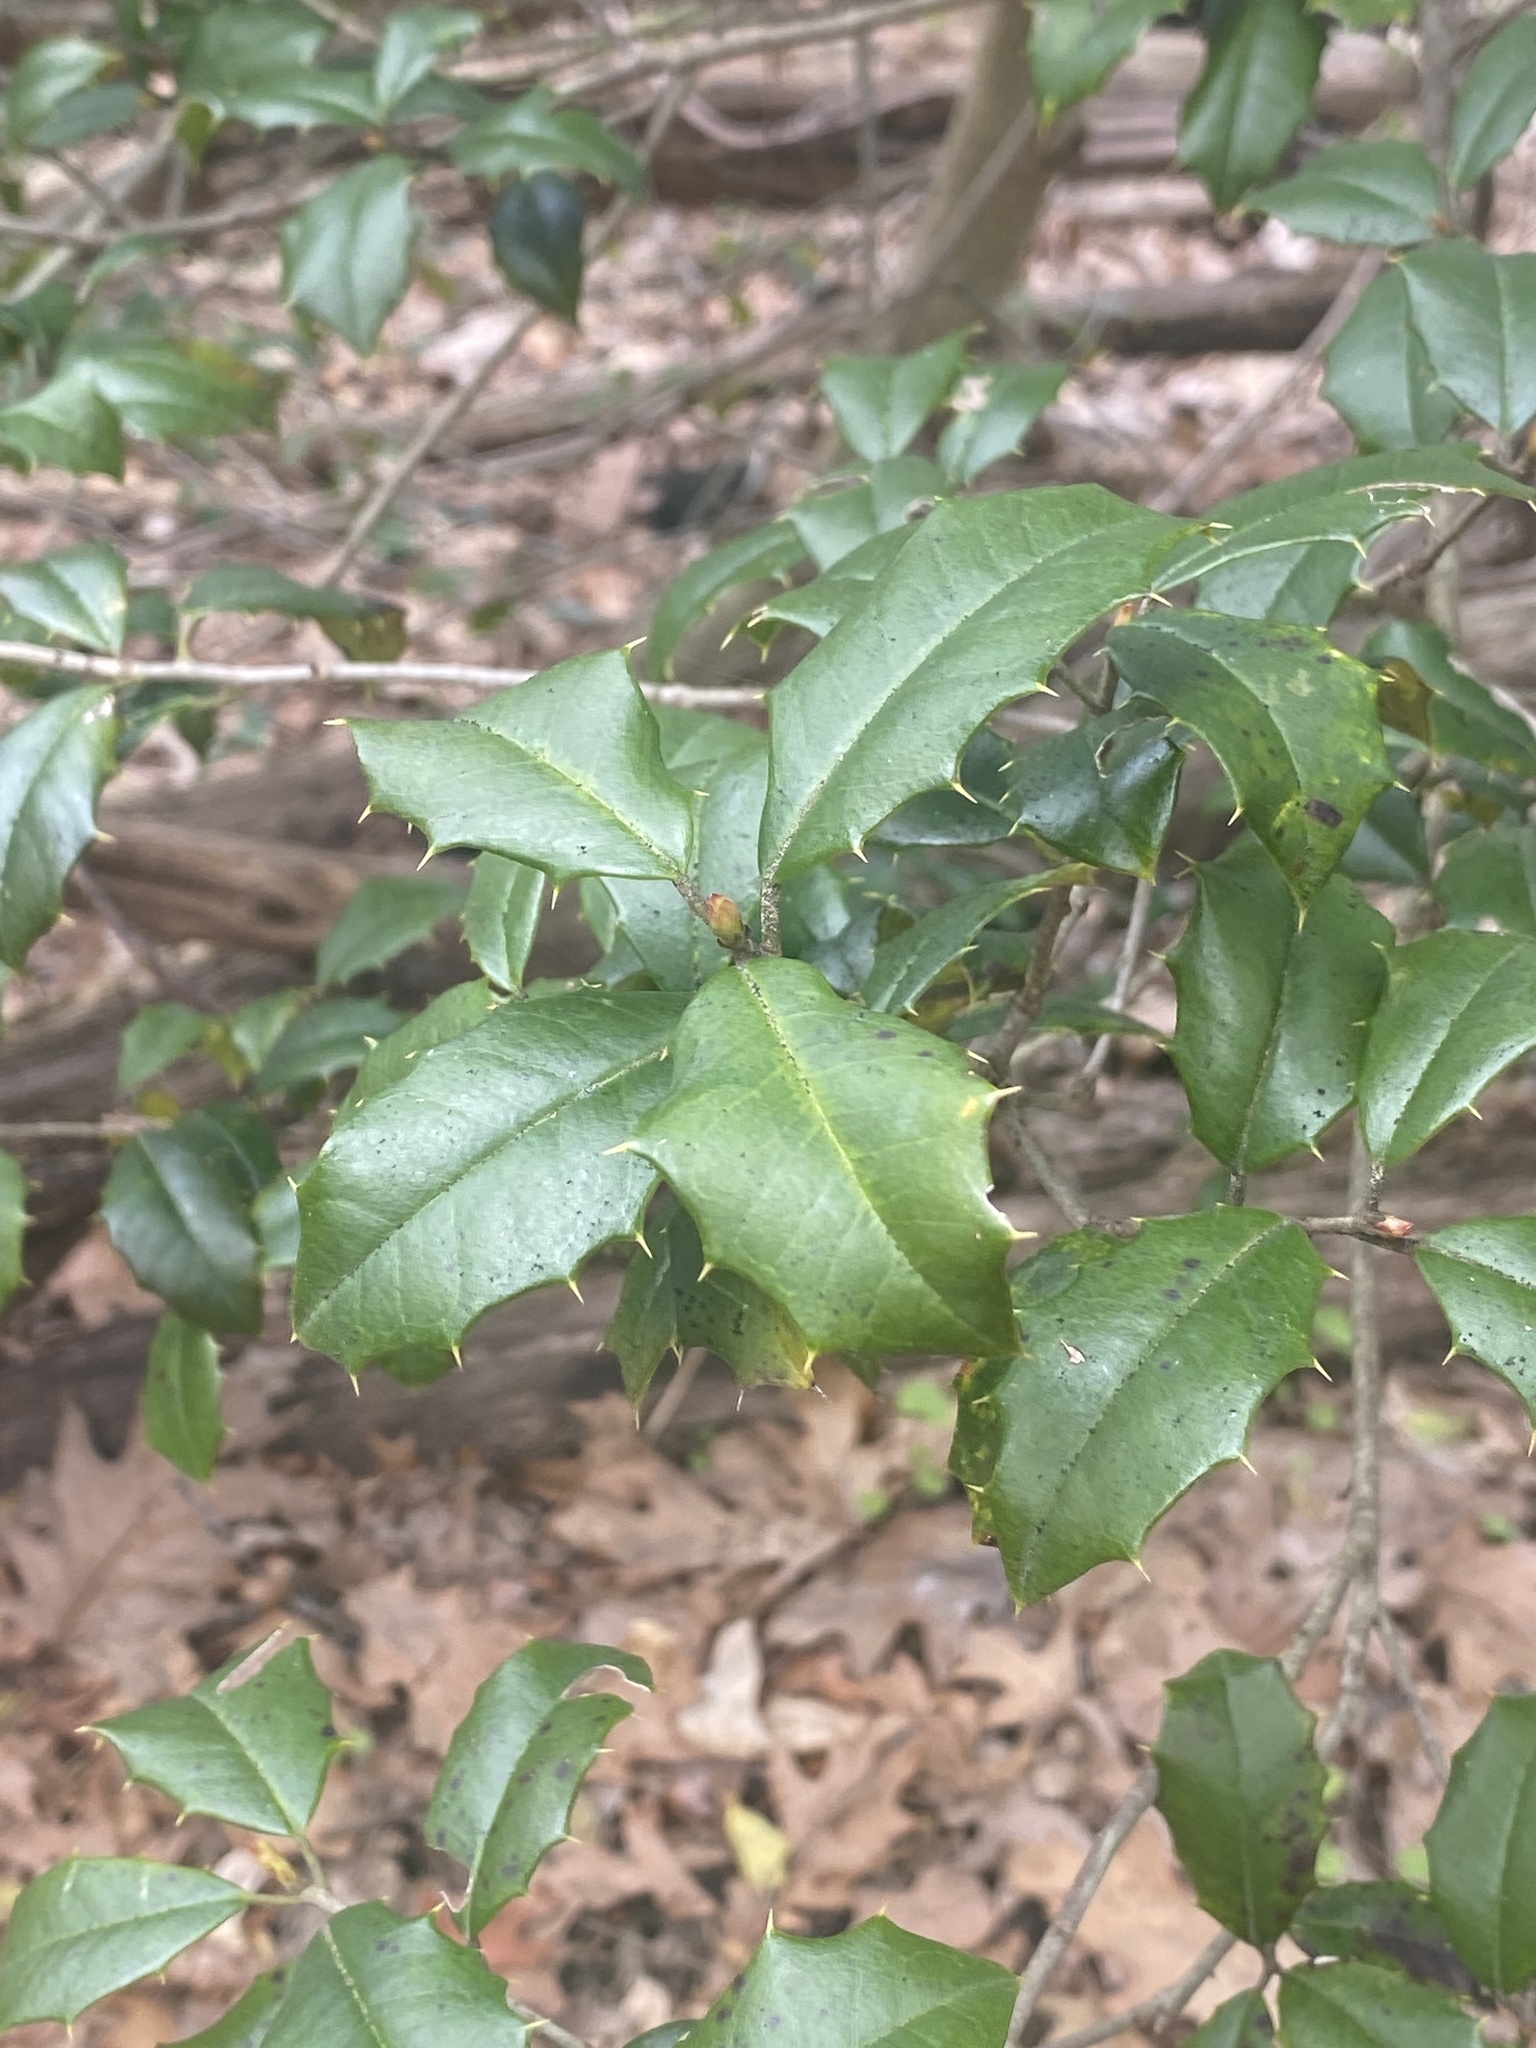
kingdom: Plantae
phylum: Tracheophyta
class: Magnoliopsida
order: Aquifoliales
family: Aquifoliaceae
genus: Ilex
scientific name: Ilex opaca
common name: American holly
